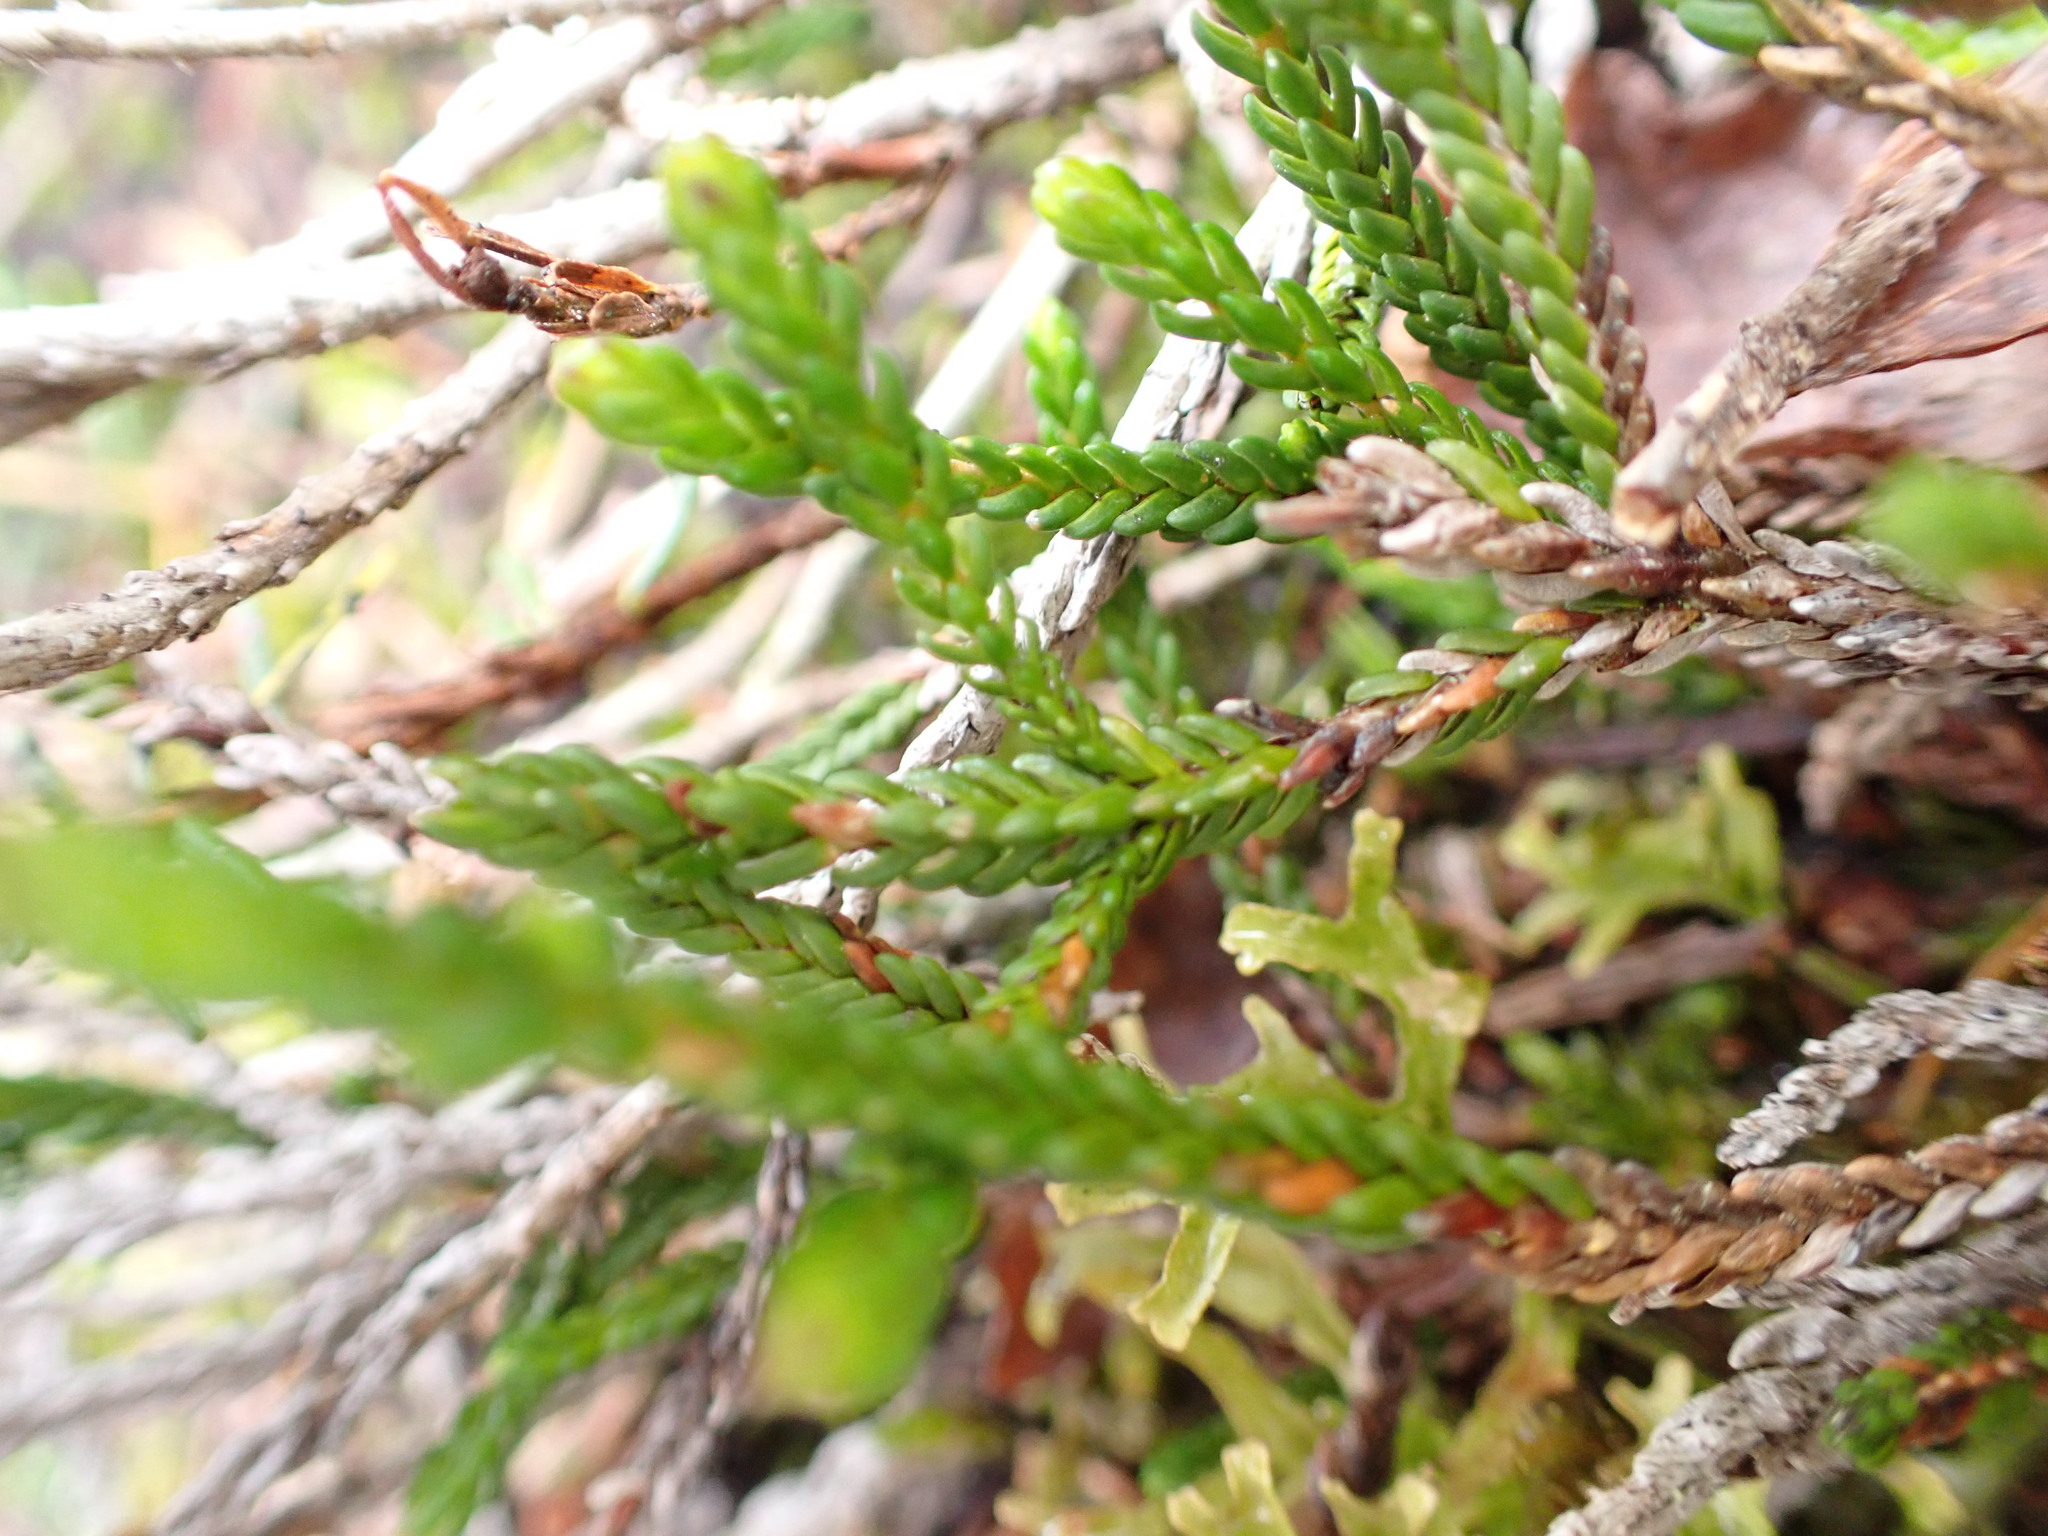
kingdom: Plantae
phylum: Tracheophyta
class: Magnoliopsida
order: Ericales
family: Ericaceae
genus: Cassiope
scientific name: Cassiope mertensiana
